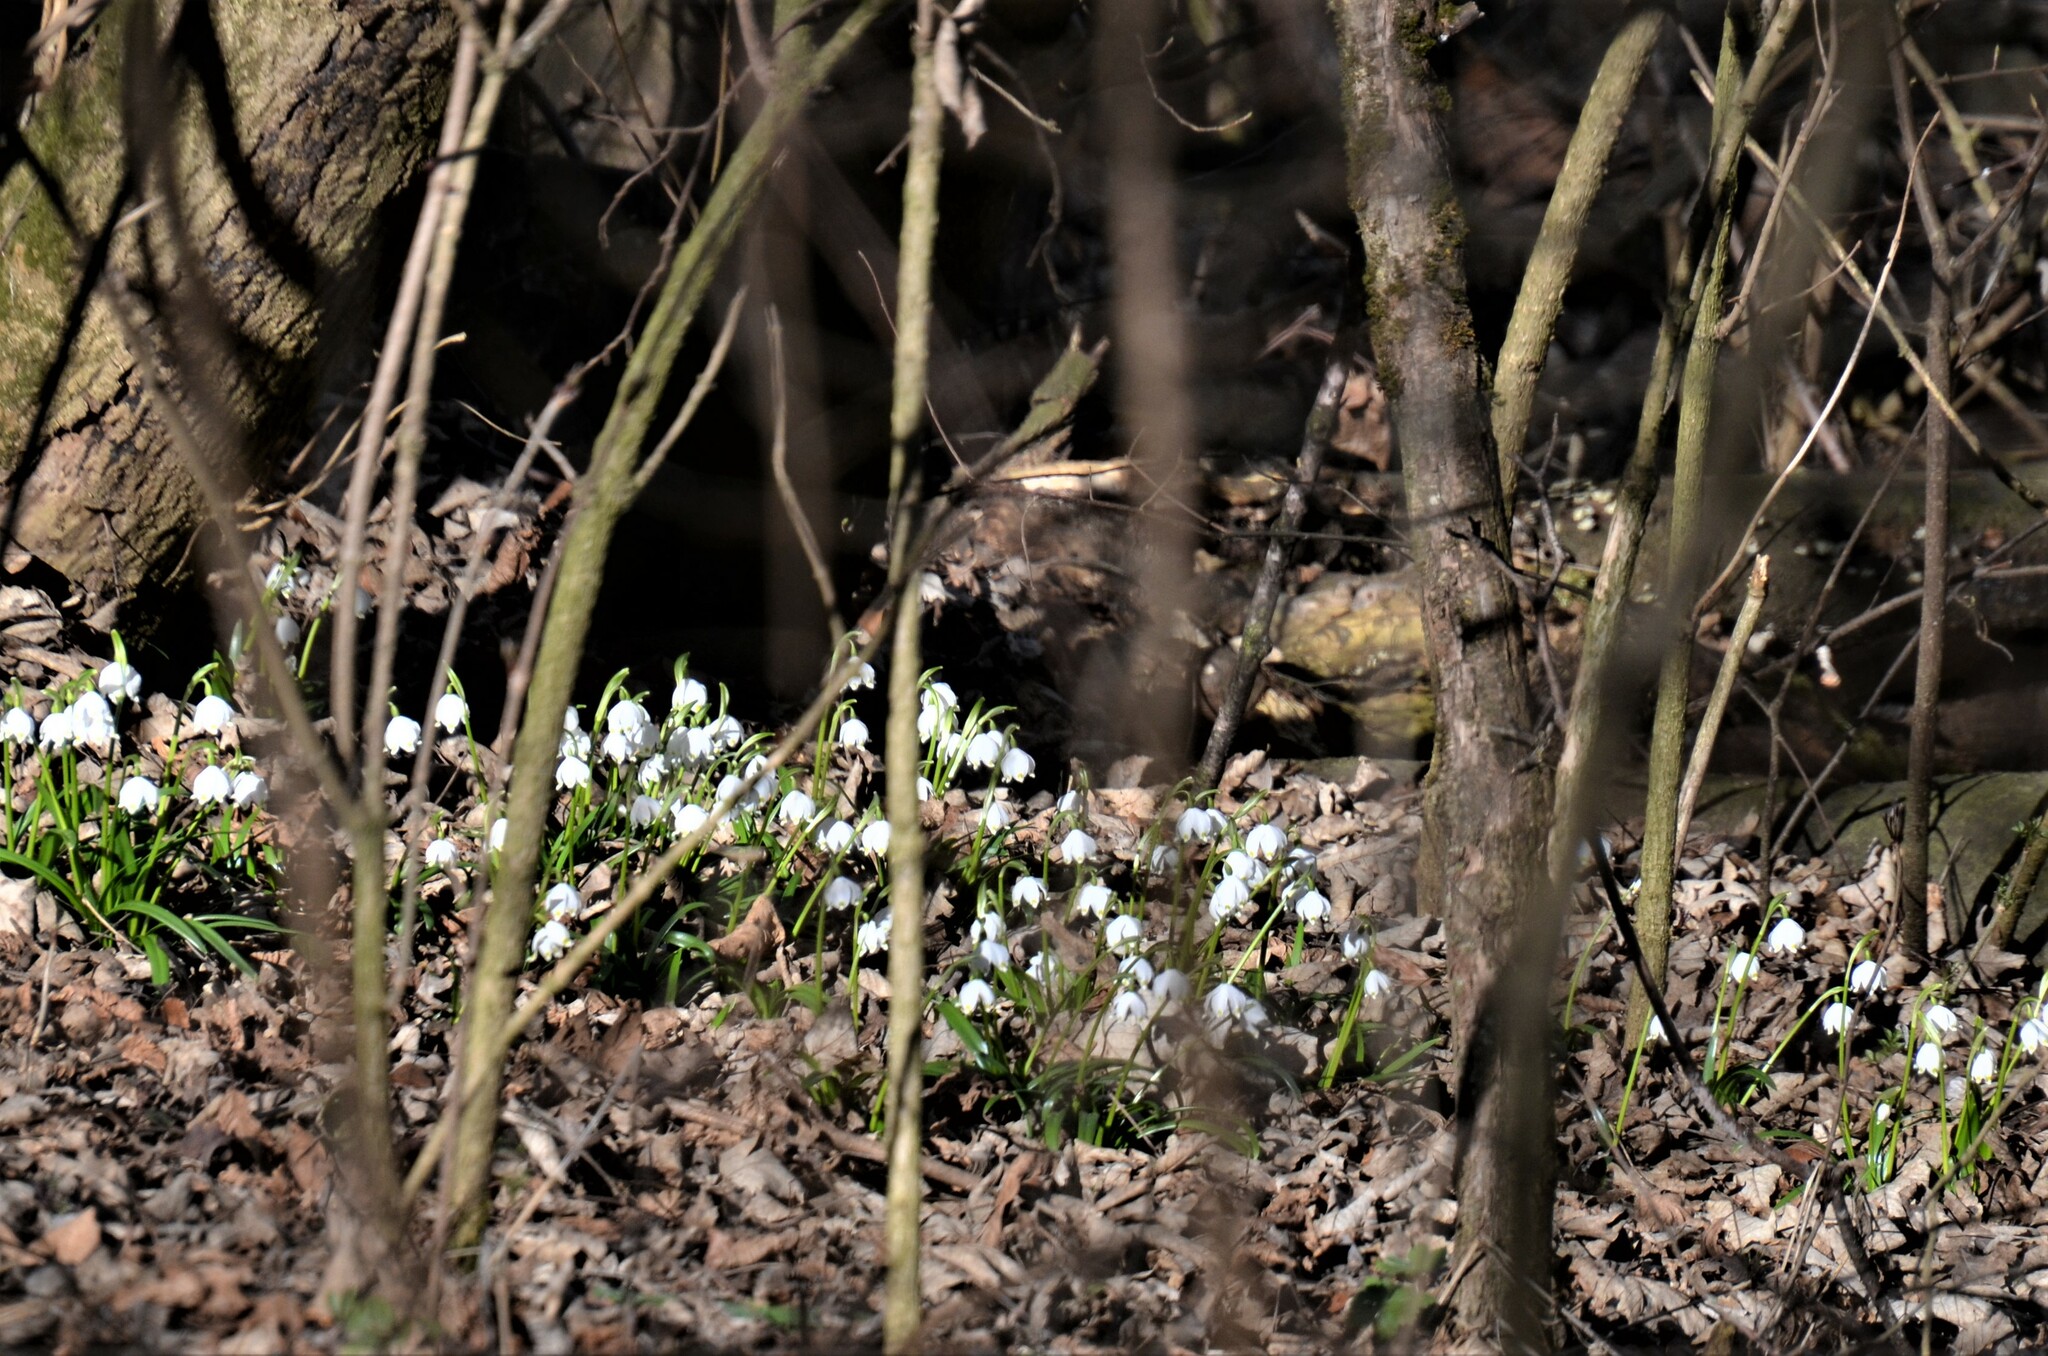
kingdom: Plantae
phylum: Tracheophyta
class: Liliopsida
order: Asparagales
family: Amaryllidaceae
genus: Leucojum
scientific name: Leucojum vernum
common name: Spring snowflake
